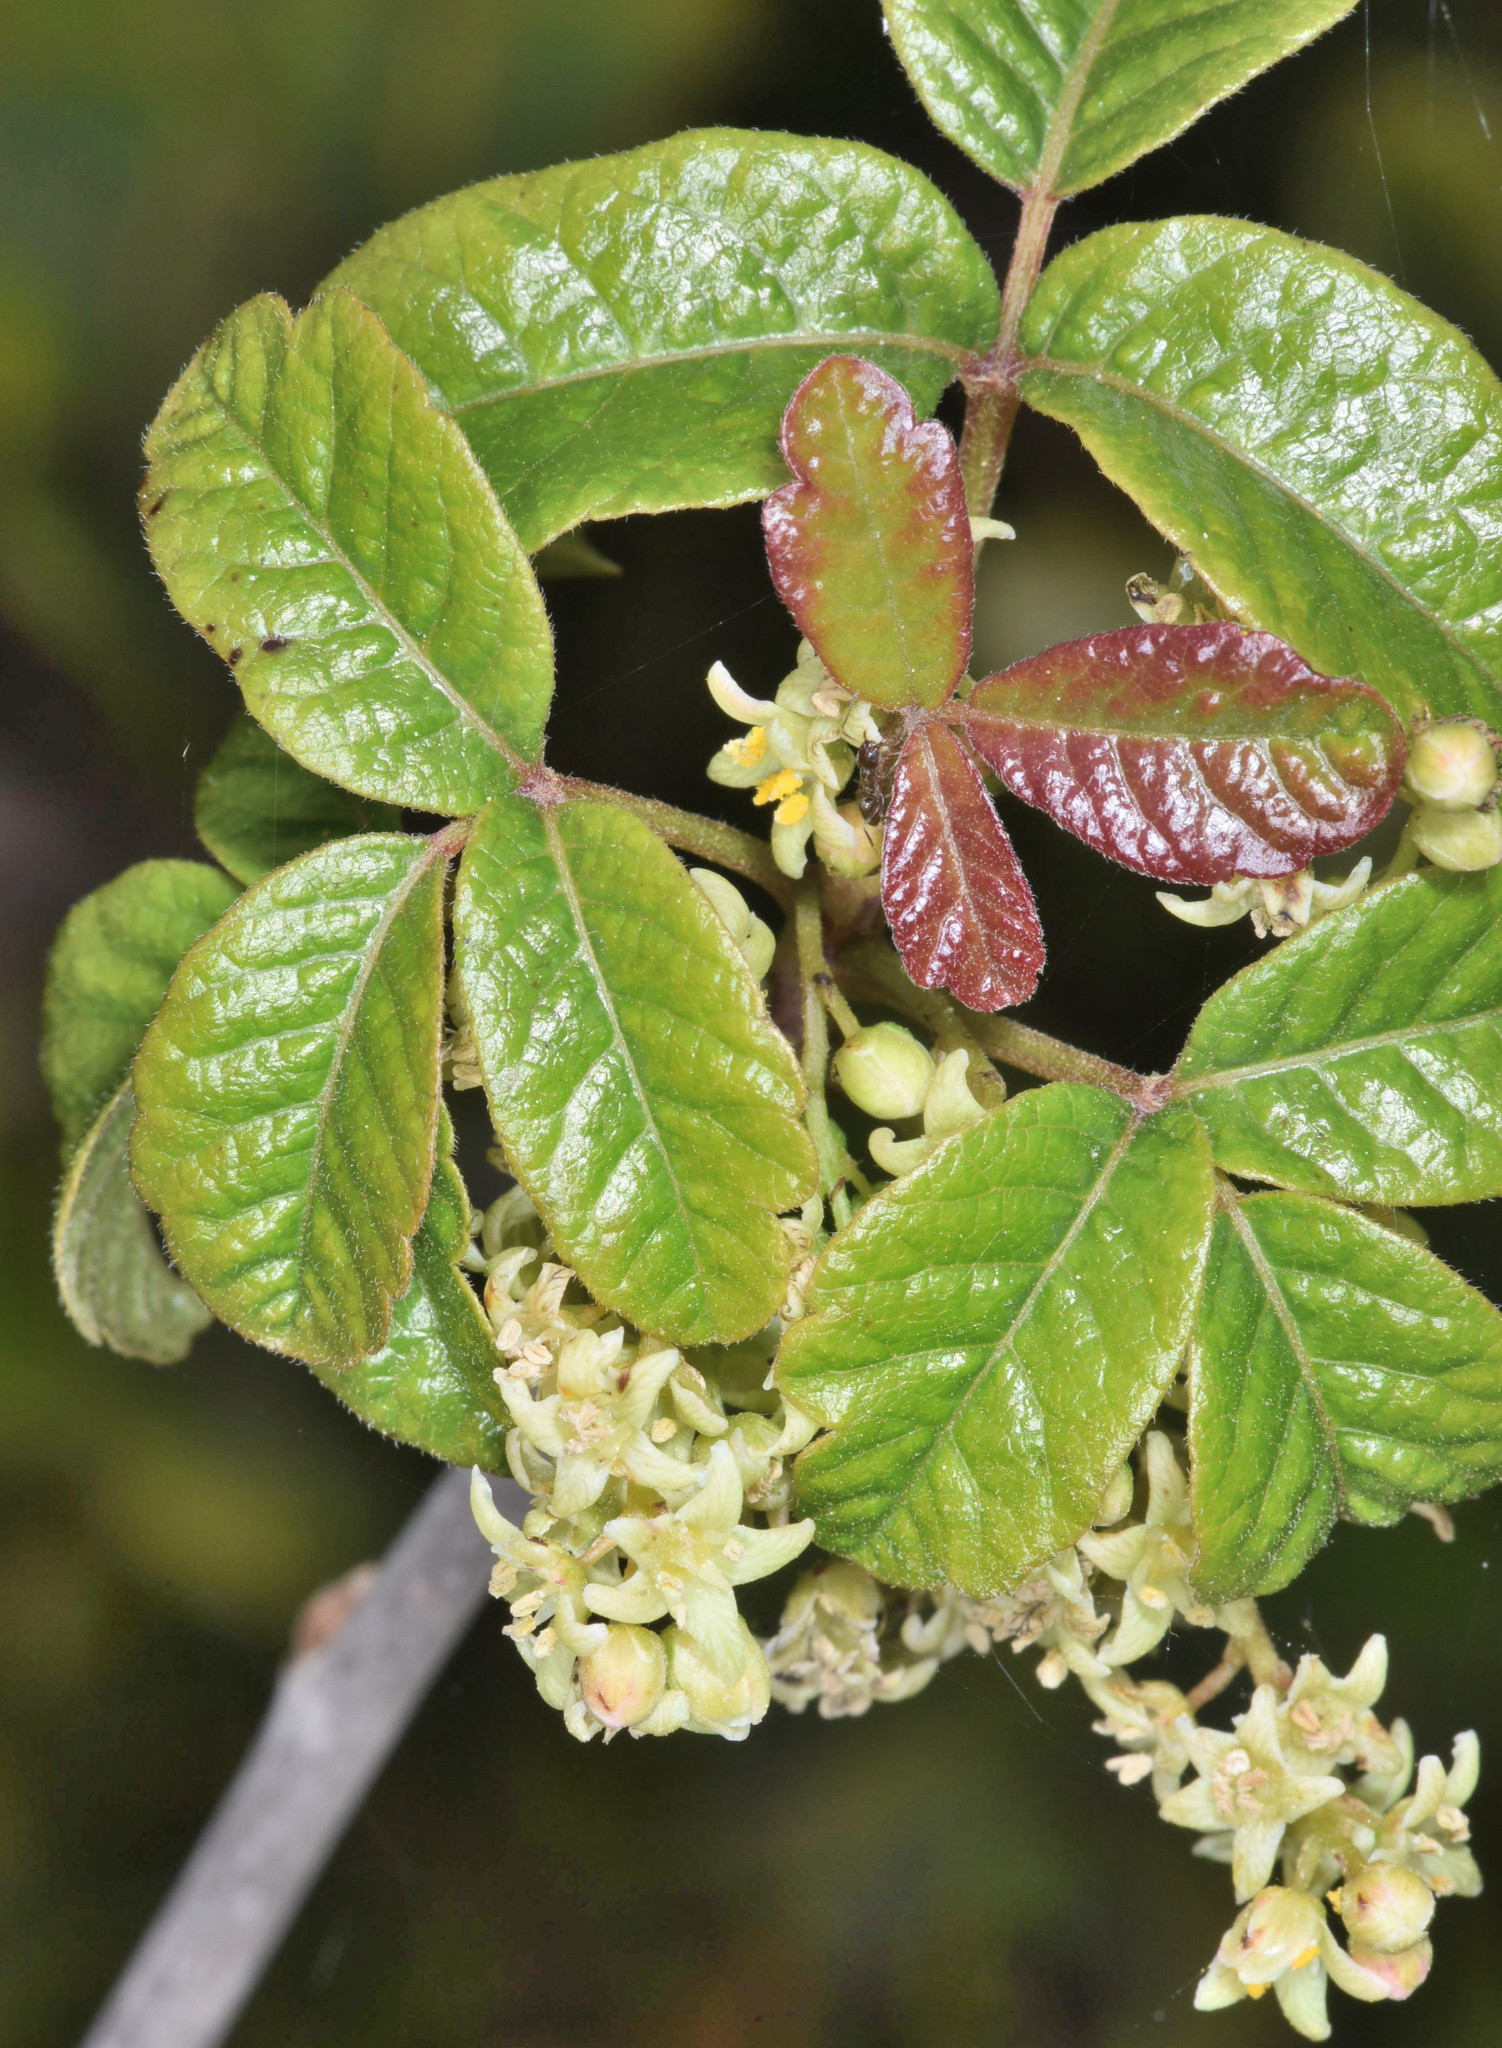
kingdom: Plantae
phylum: Tracheophyta
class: Magnoliopsida
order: Sapindales
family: Anacardiaceae
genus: Toxicodendron
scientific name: Toxicodendron diversilobum
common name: Pacific poison-oak
